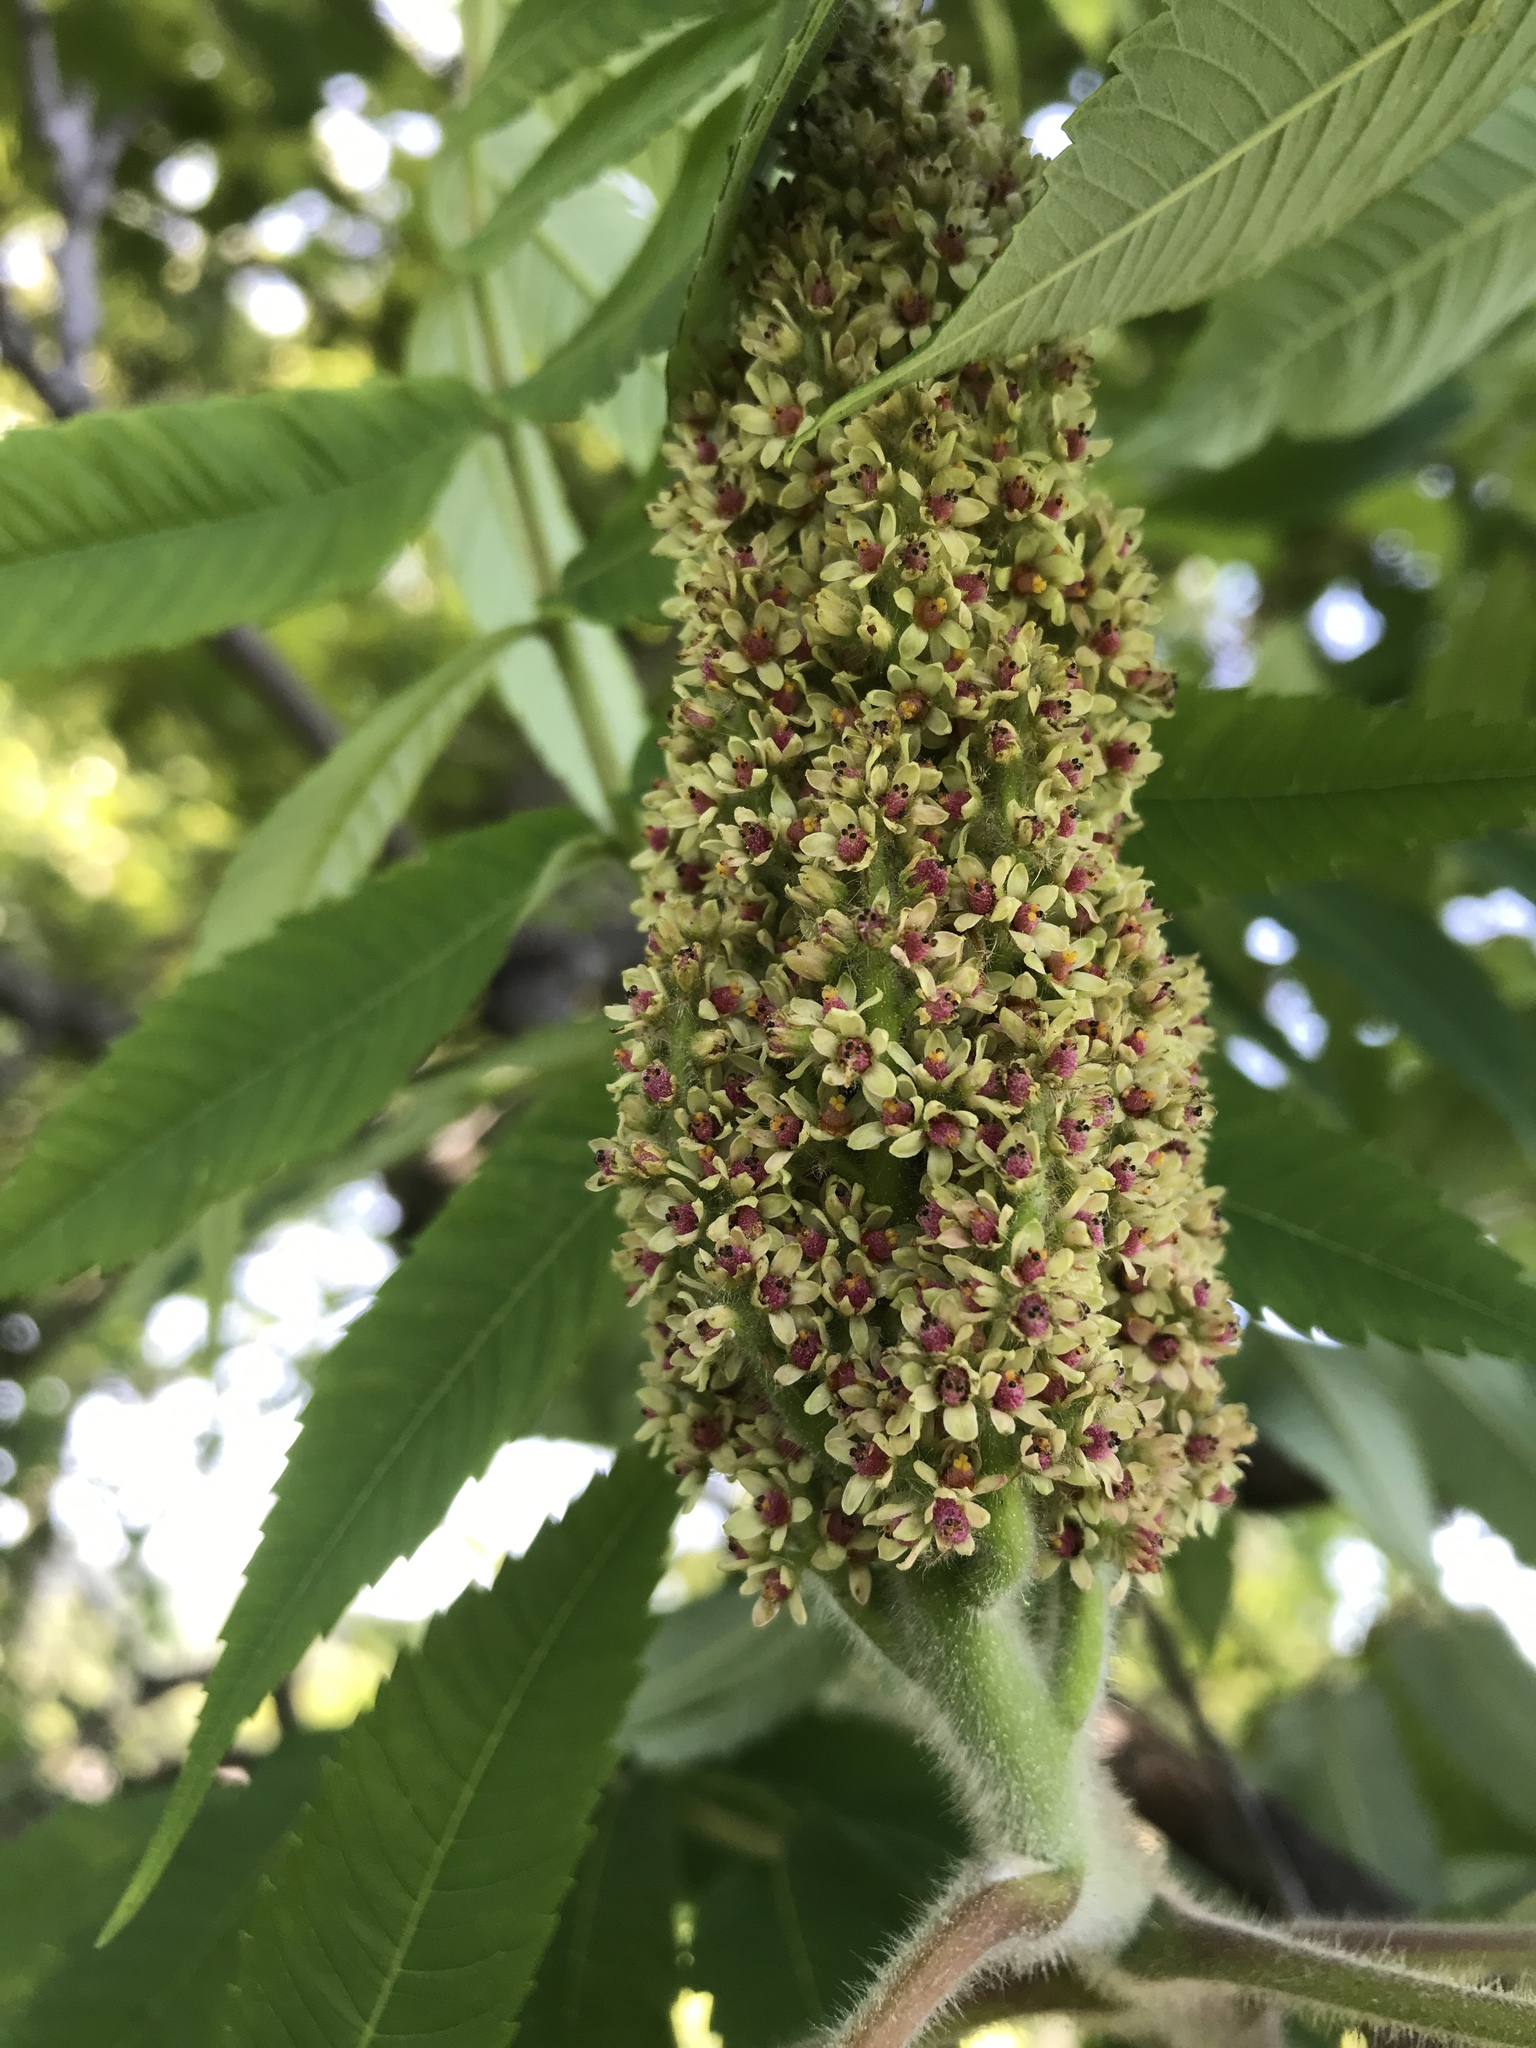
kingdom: Plantae
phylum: Tracheophyta
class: Magnoliopsida
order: Sapindales
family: Anacardiaceae
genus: Rhus
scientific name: Rhus typhina
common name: Staghorn sumac
